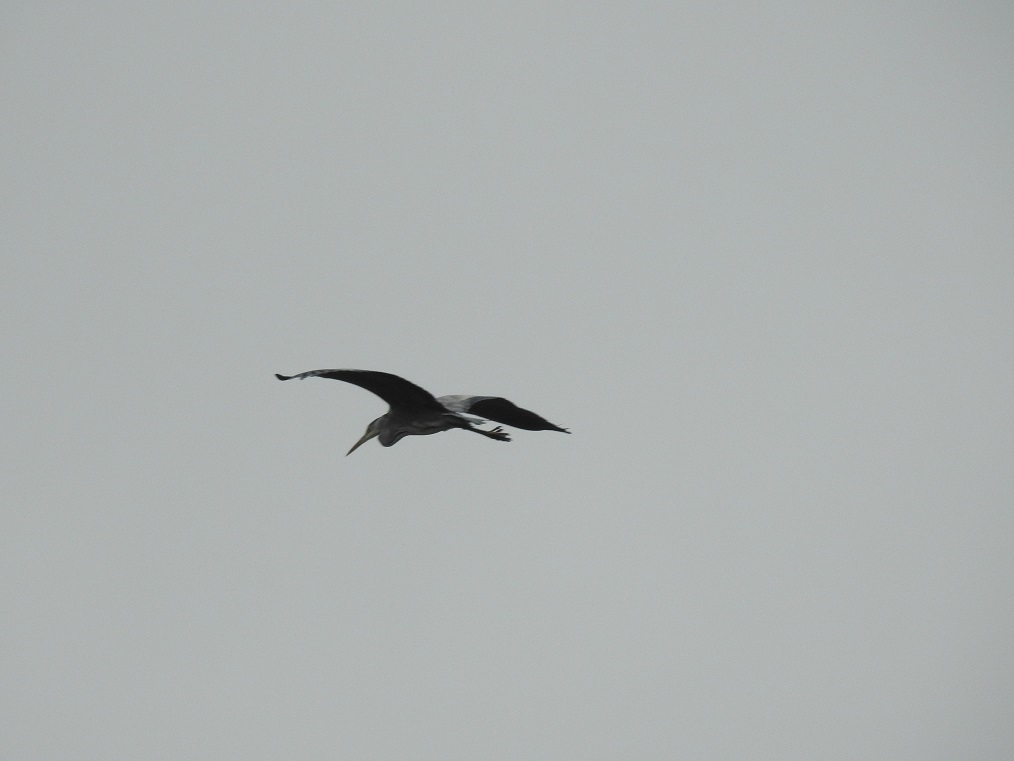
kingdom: Animalia
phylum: Chordata
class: Aves
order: Pelecaniformes
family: Ardeidae
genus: Ardea
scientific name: Ardea cinerea
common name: Grey heron
